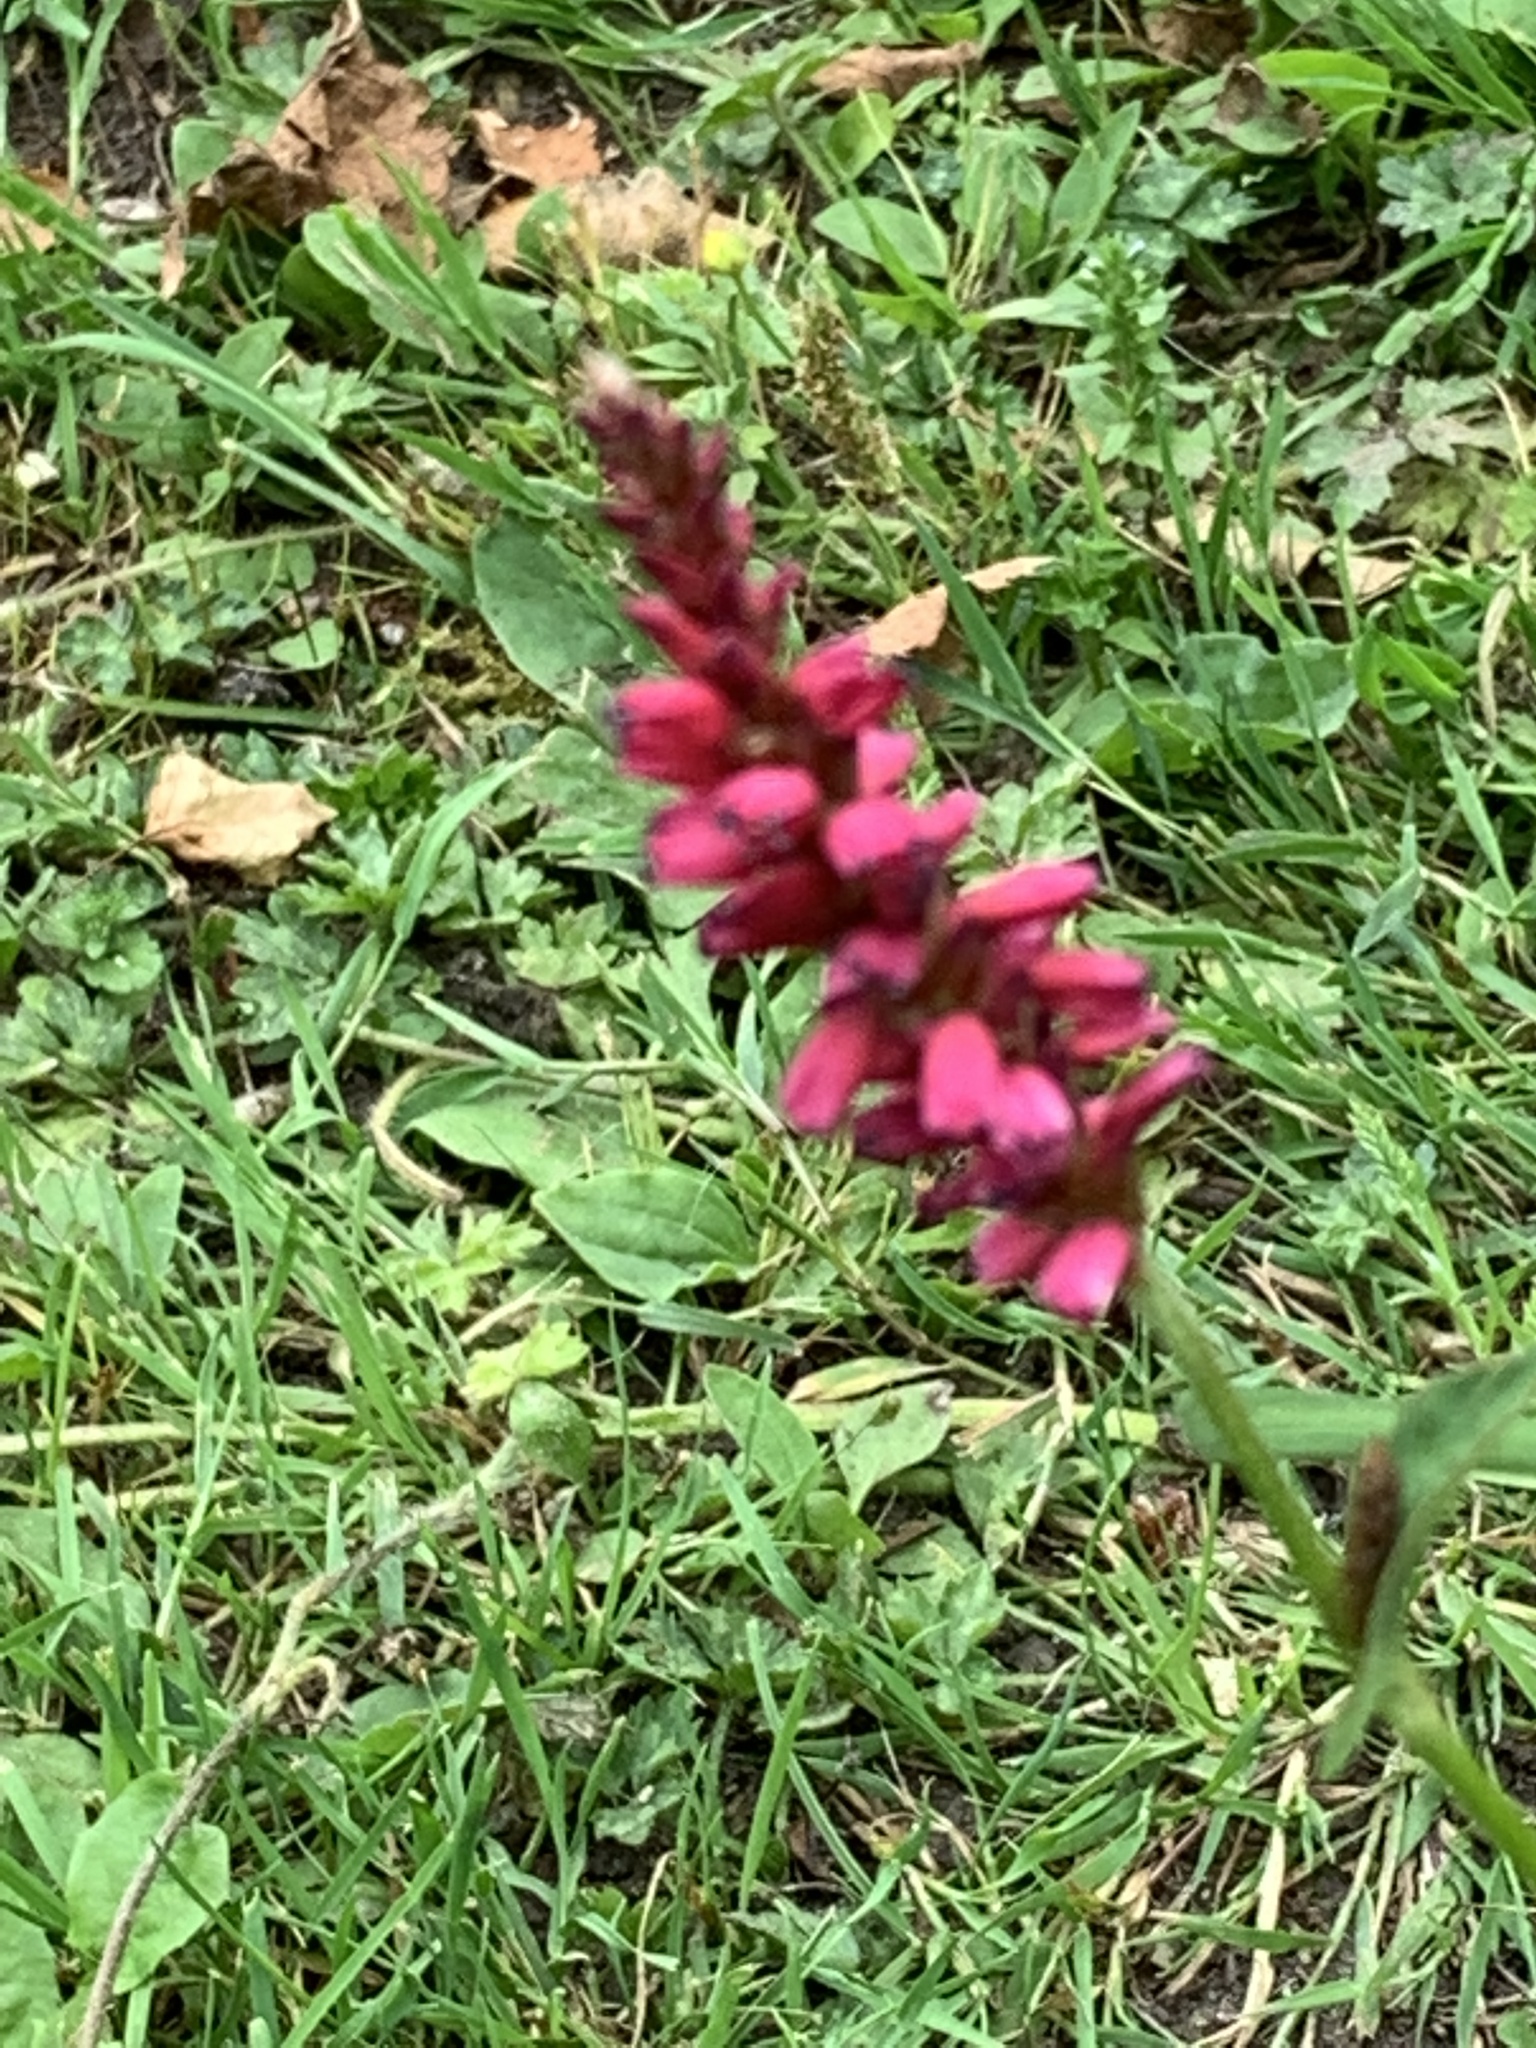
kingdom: Plantae
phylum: Tracheophyta
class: Magnoliopsida
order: Caryophyllales
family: Polygonaceae
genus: Bistorta
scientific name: Bistorta amplexicaulis
